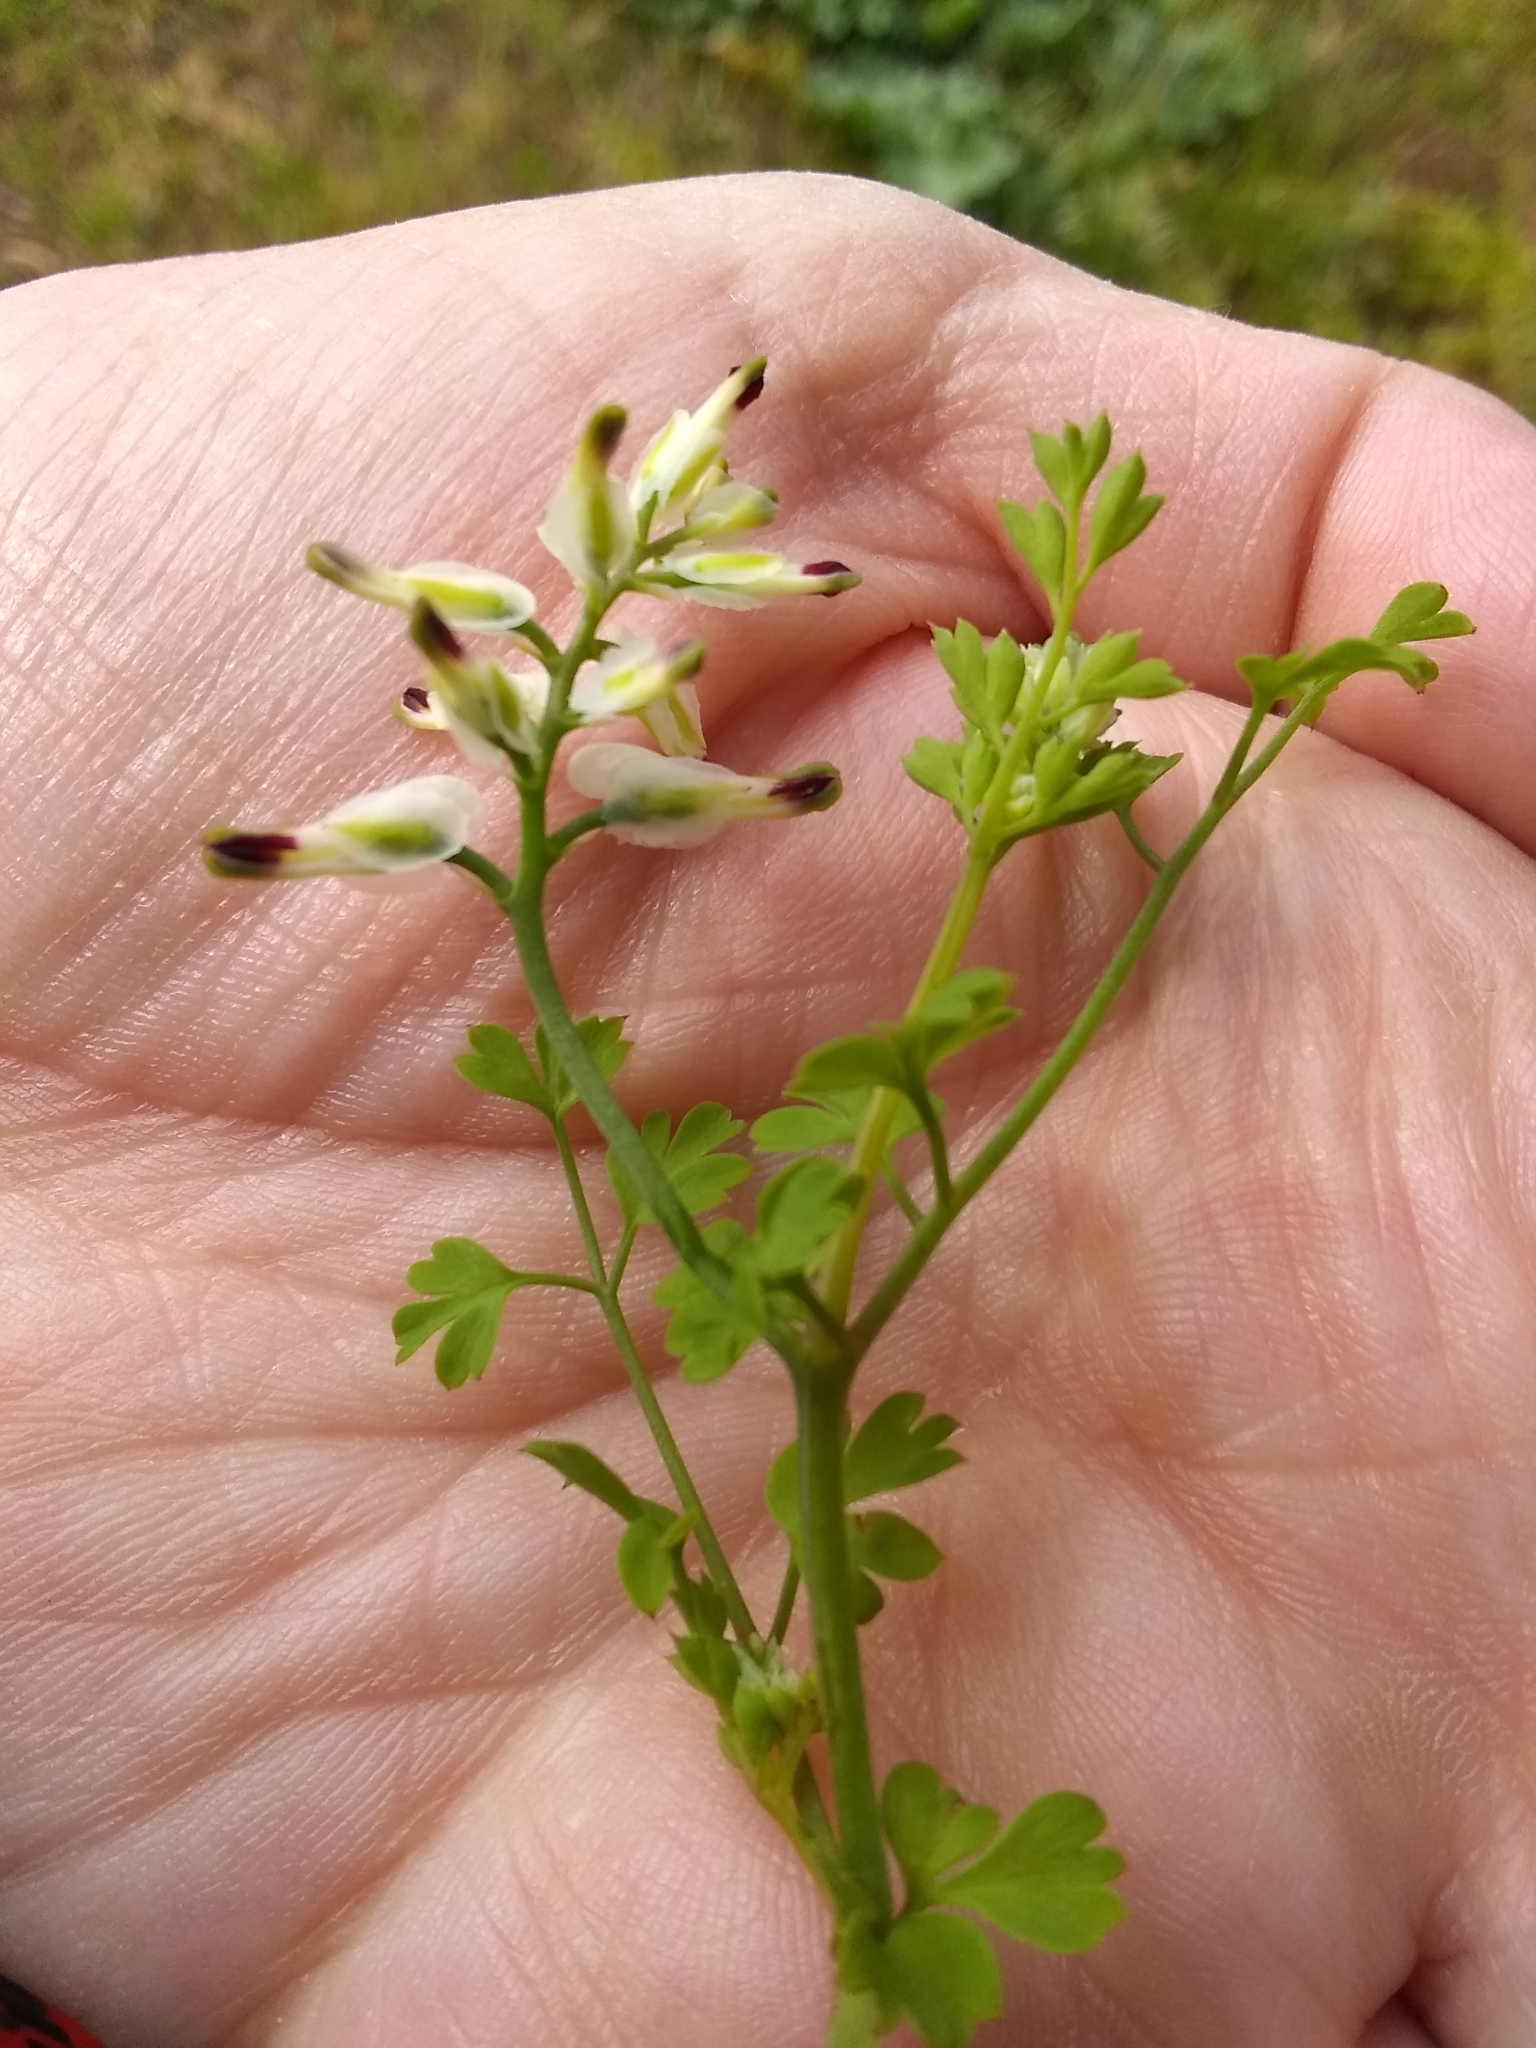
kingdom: Plantae
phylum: Tracheophyta
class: Magnoliopsida
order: Ranunculales
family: Papaveraceae
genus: Fumaria
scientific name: Fumaria capreolata
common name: White ramping-fumitory
